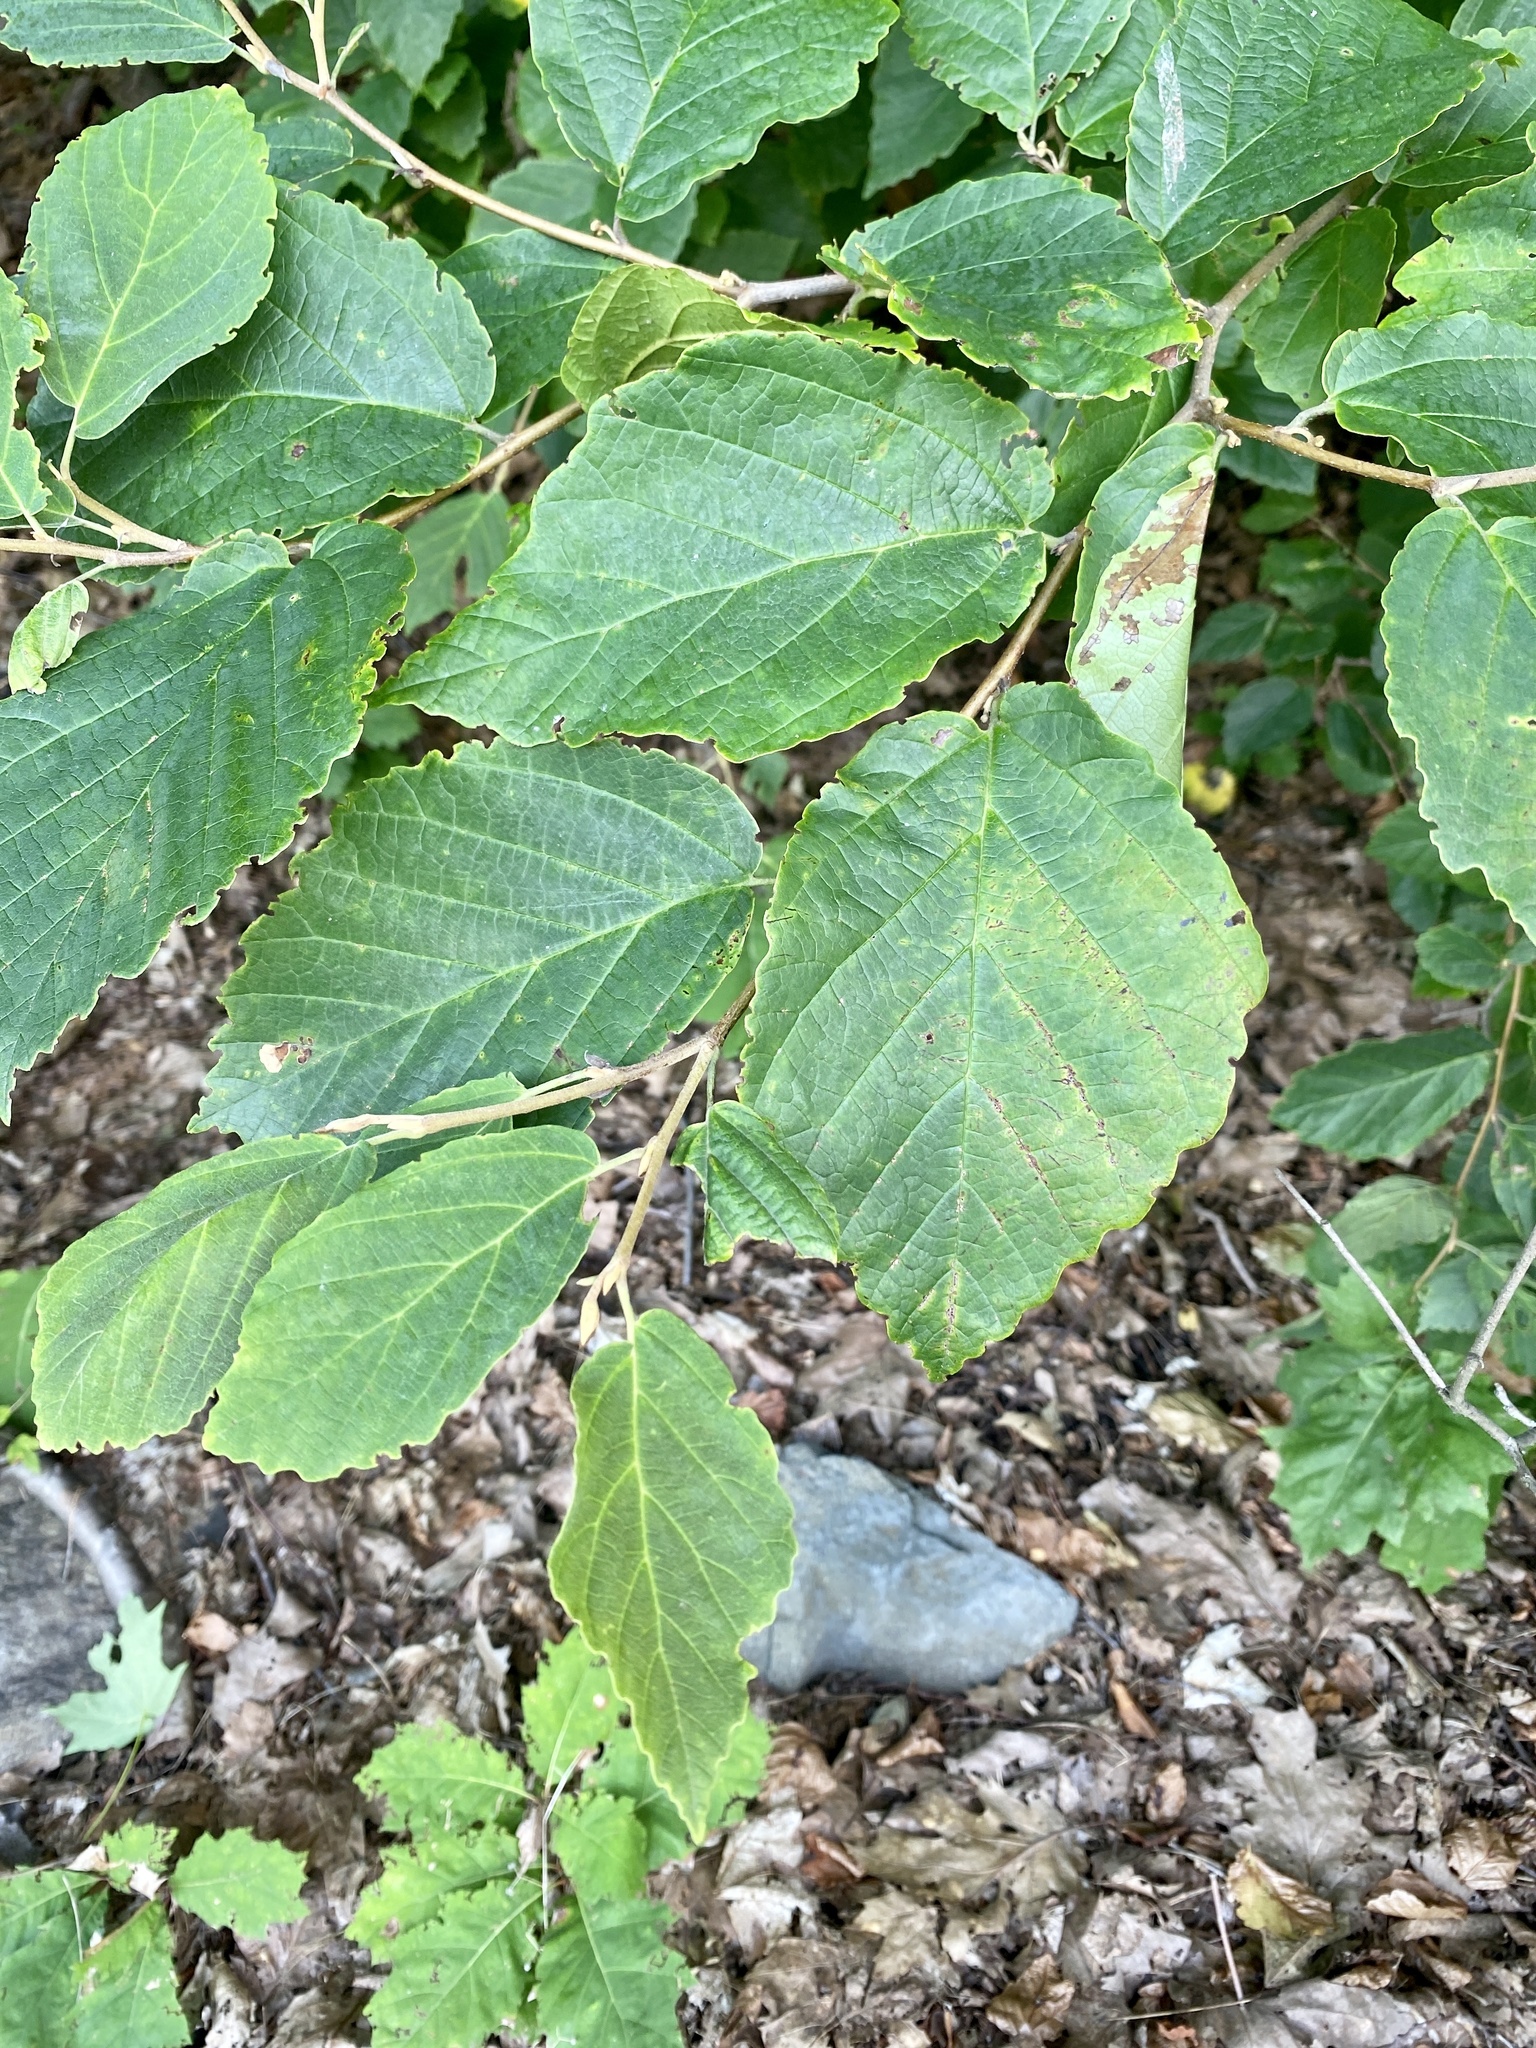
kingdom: Plantae
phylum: Tracheophyta
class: Magnoliopsida
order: Saxifragales
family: Hamamelidaceae
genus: Hamamelis
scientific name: Hamamelis virginiana
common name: Witch-hazel
